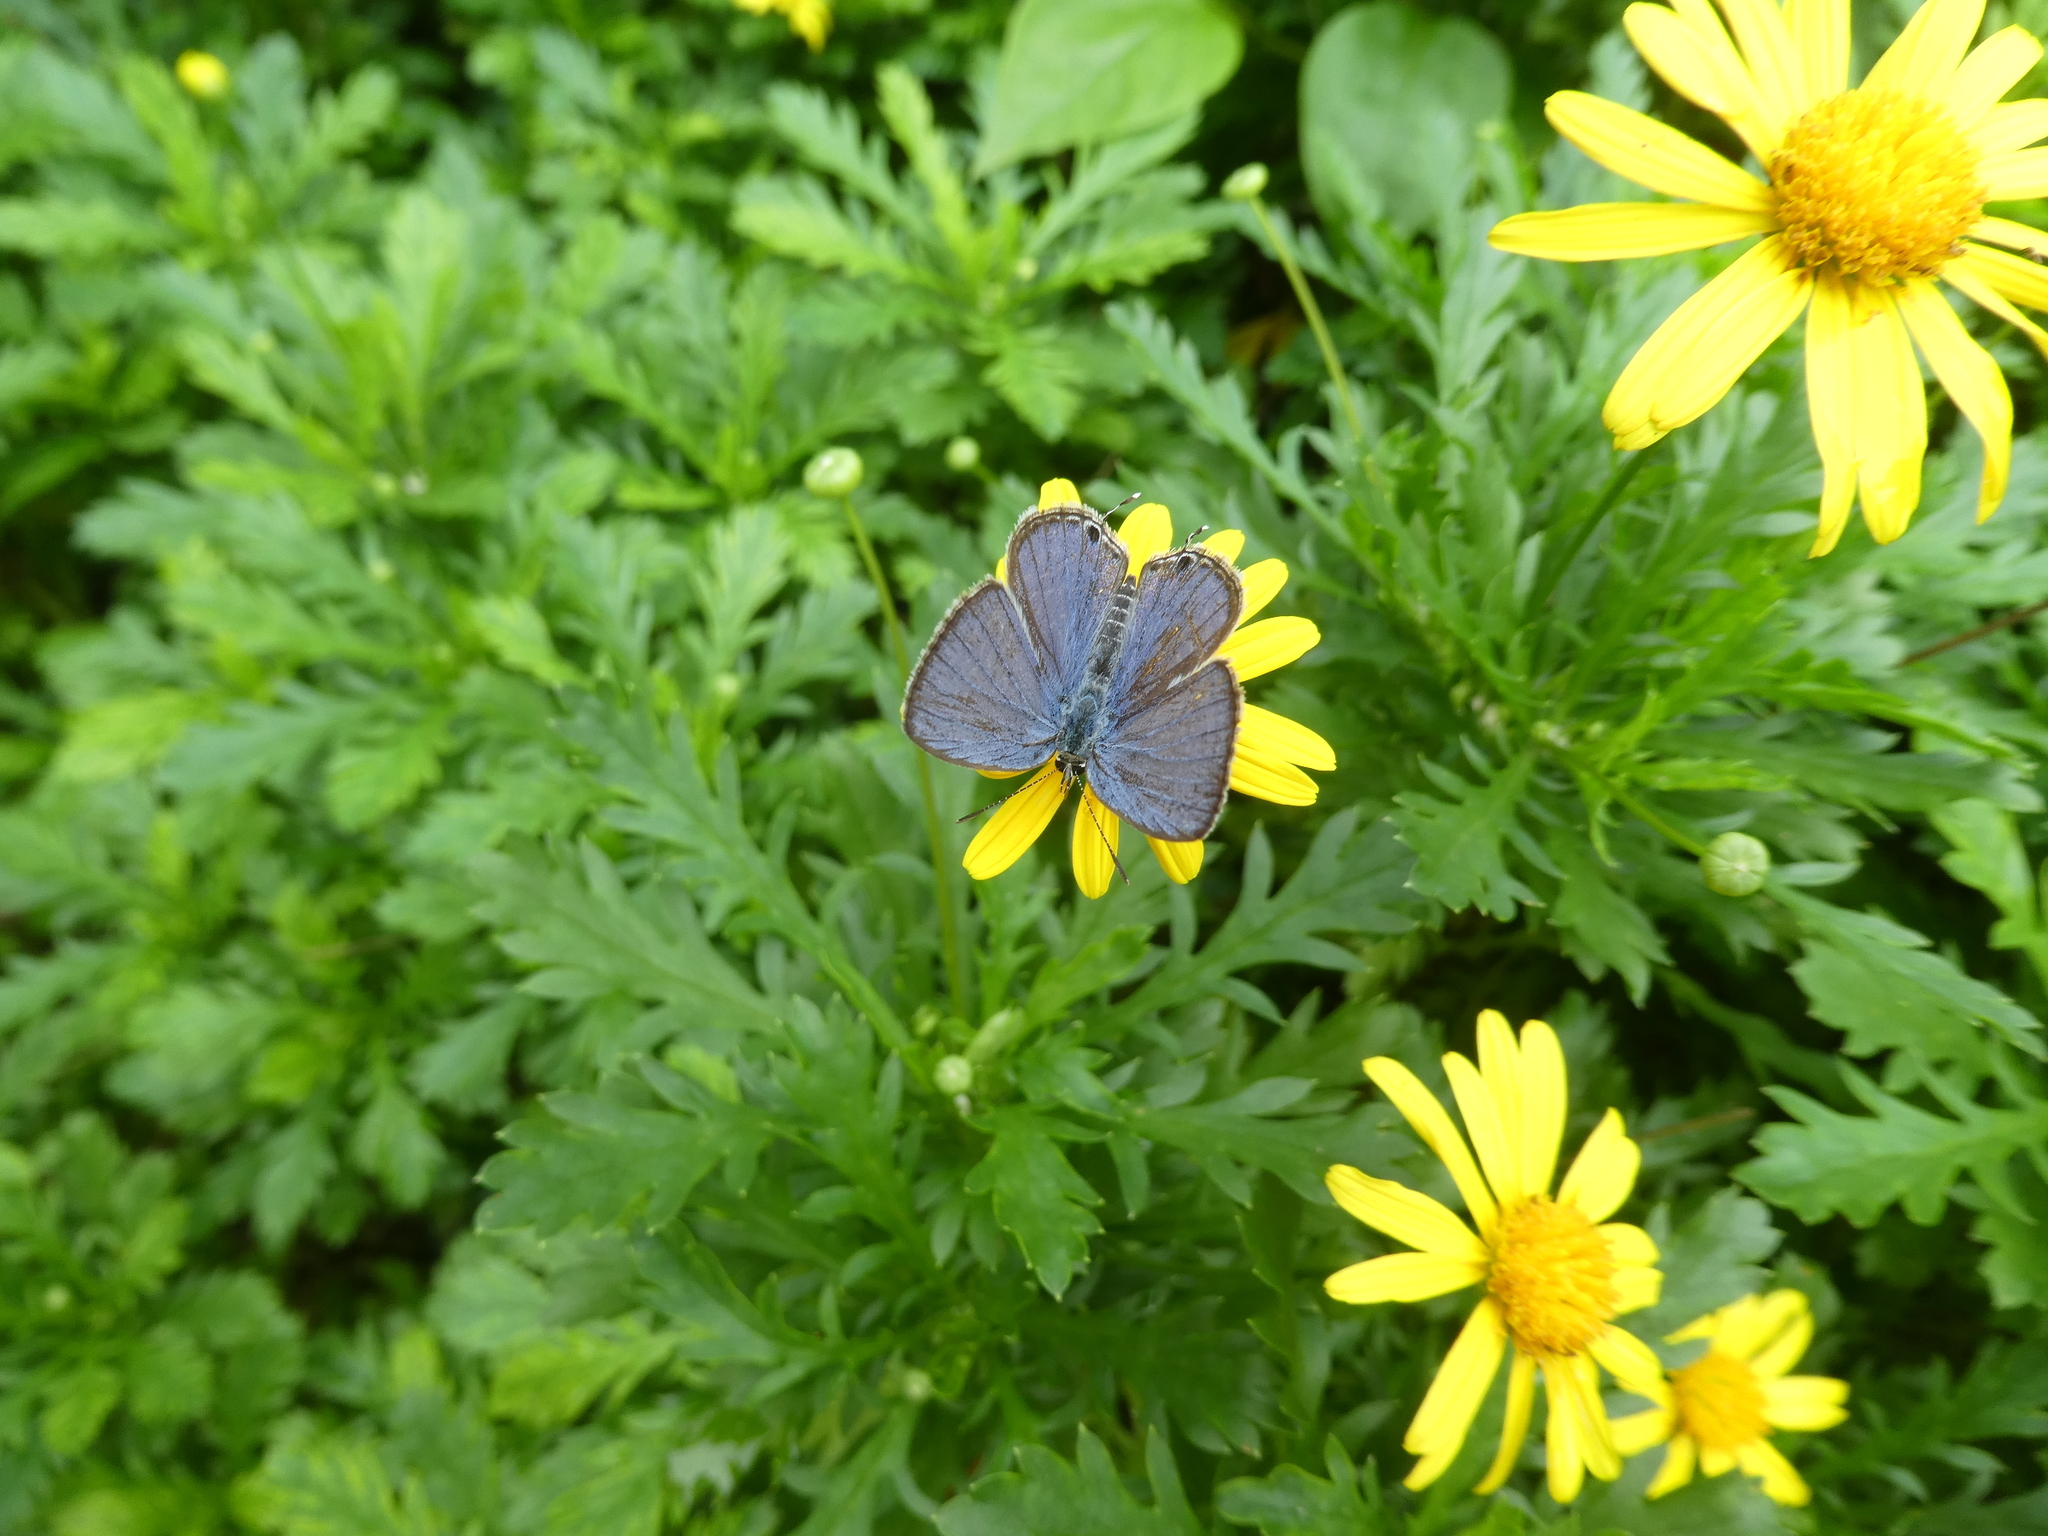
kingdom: Animalia
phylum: Arthropoda
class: Insecta
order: Lepidoptera
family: Lycaenidae
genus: Luthrodes
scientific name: Luthrodes pandava
